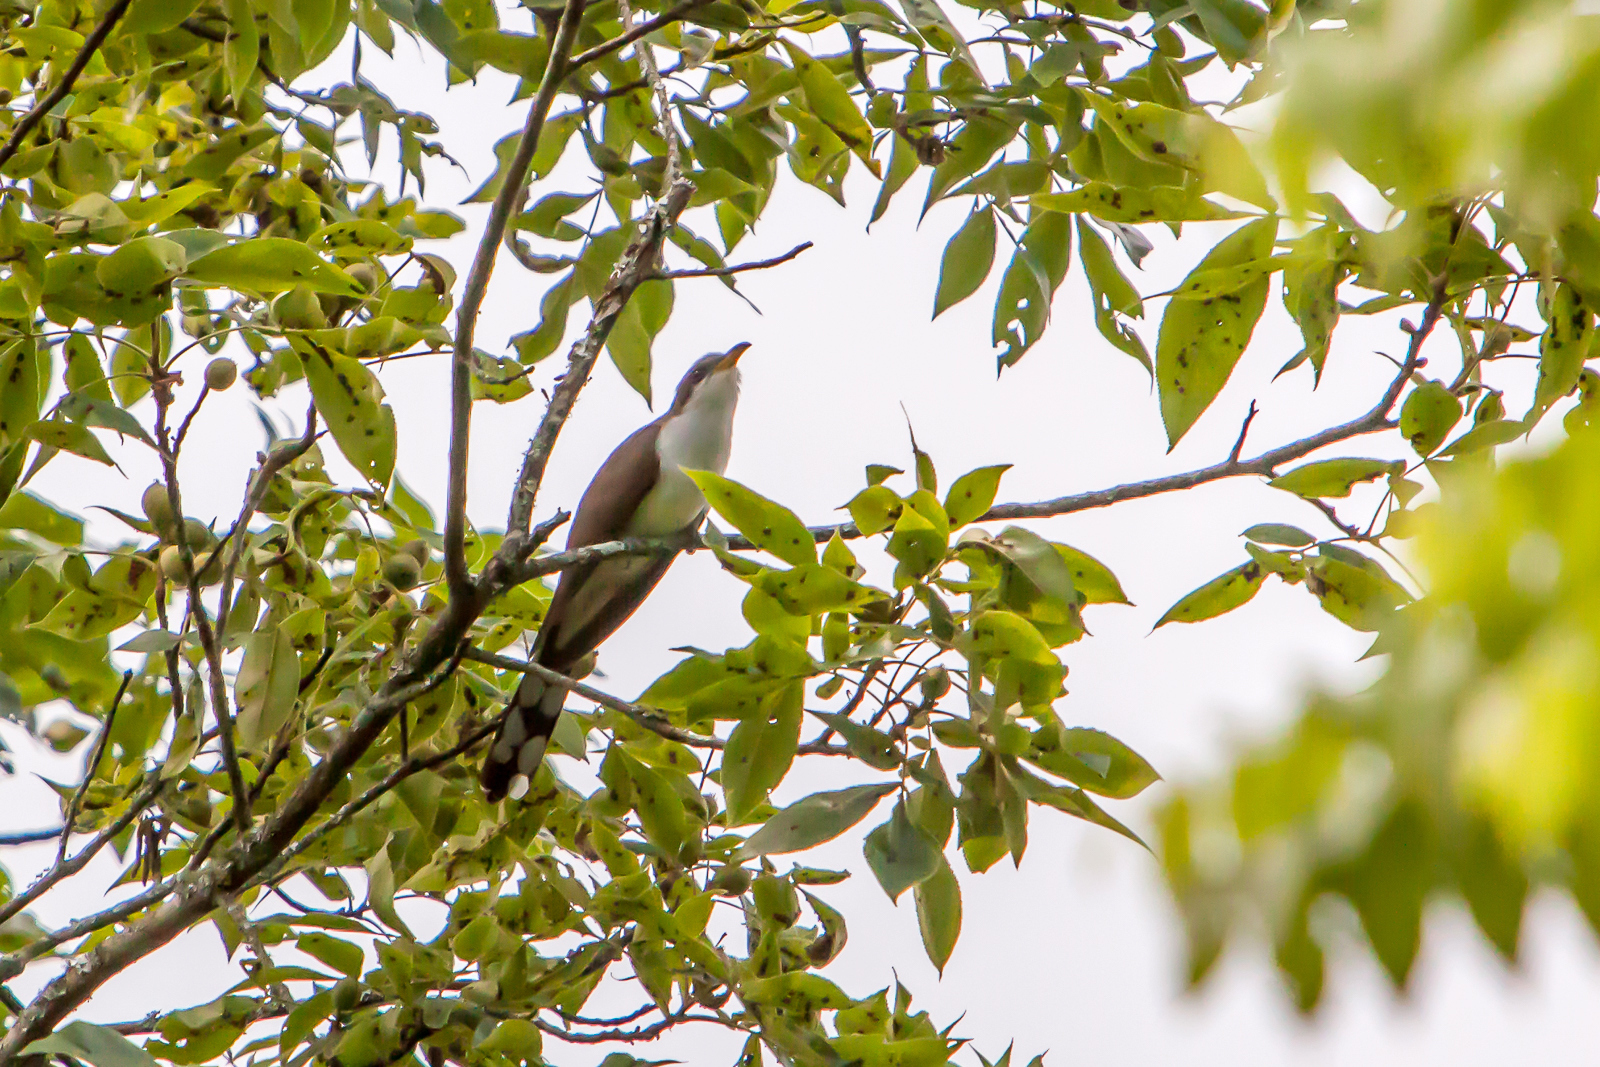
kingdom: Animalia
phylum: Chordata
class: Aves
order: Cuculiformes
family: Cuculidae
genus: Coccyzus
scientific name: Coccyzus americanus
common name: Yellow-billed cuckoo
